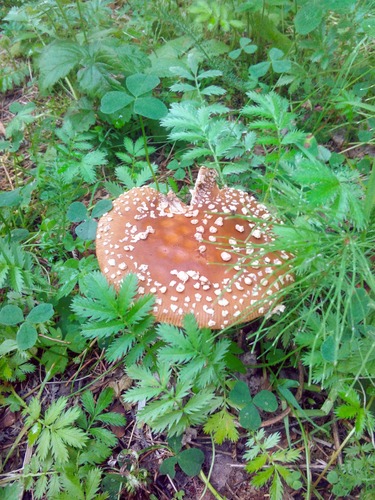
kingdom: Fungi
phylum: Basidiomycota
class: Agaricomycetes
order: Agaricales
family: Amanitaceae
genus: Amanita
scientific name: Amanita regalis
